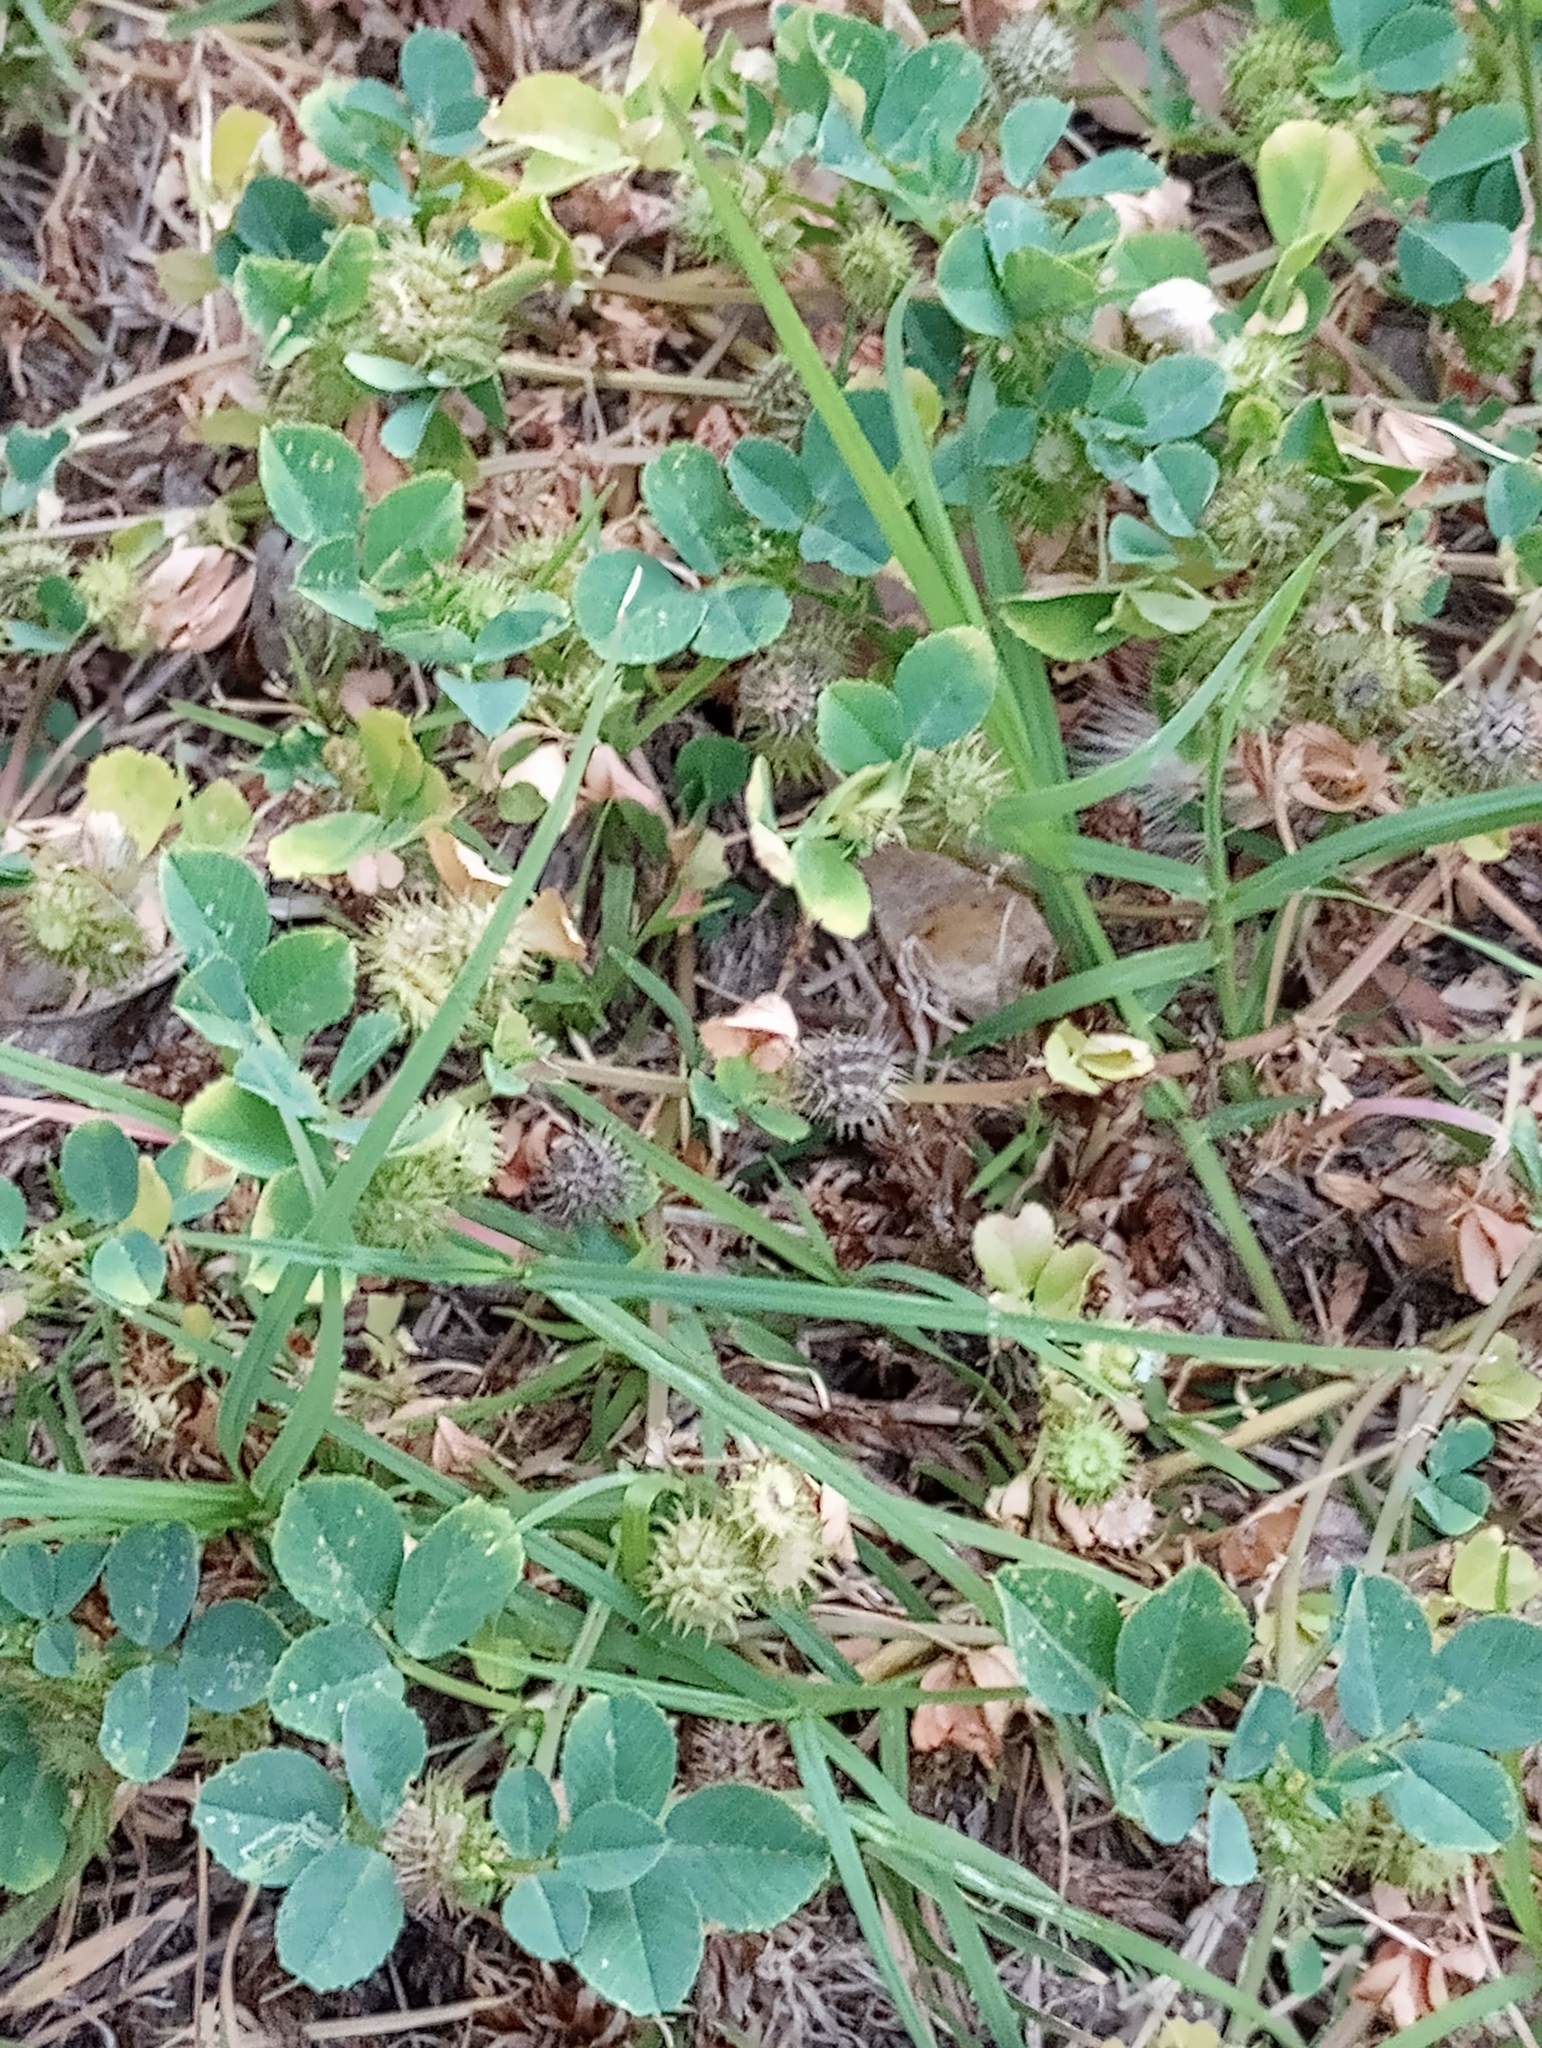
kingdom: Plantae
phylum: Tracheophyta
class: Magnoliopsida
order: Fabales
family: Fabaceae
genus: Medicago
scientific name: Medicago polymorpha
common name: Burclover
